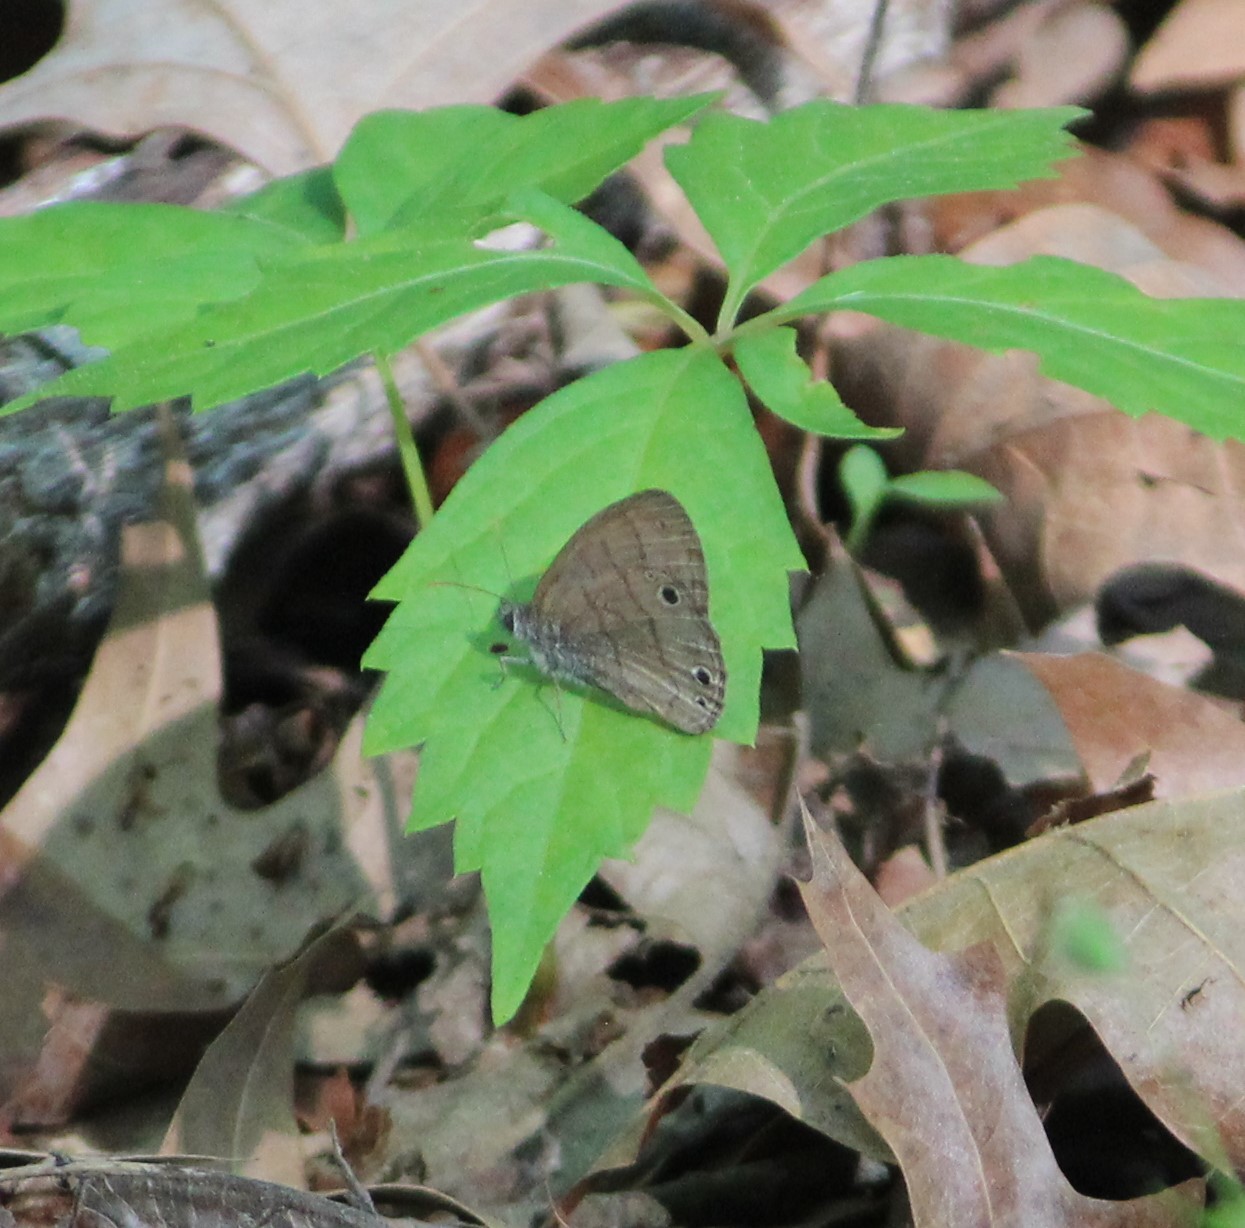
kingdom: Animalia
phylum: Arthropoda
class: Insecta
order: Lepidoptera
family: Nymphalidae
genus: Hermeuptychia
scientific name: Hermeuptychia hermes
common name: Hermes satyr
